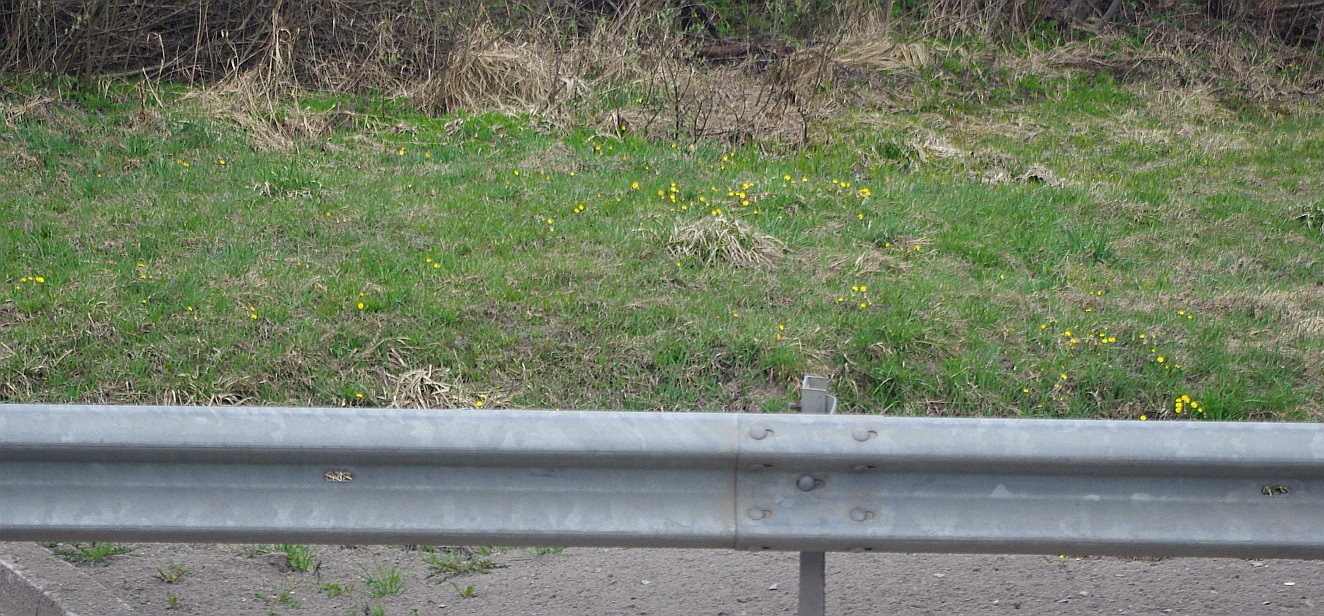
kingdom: Plantae
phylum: Tracheophyta
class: Magnoliopsida
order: Asterales
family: Asteraceae
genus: Tussilago
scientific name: Tussilago farfara
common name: Coltsfoot
